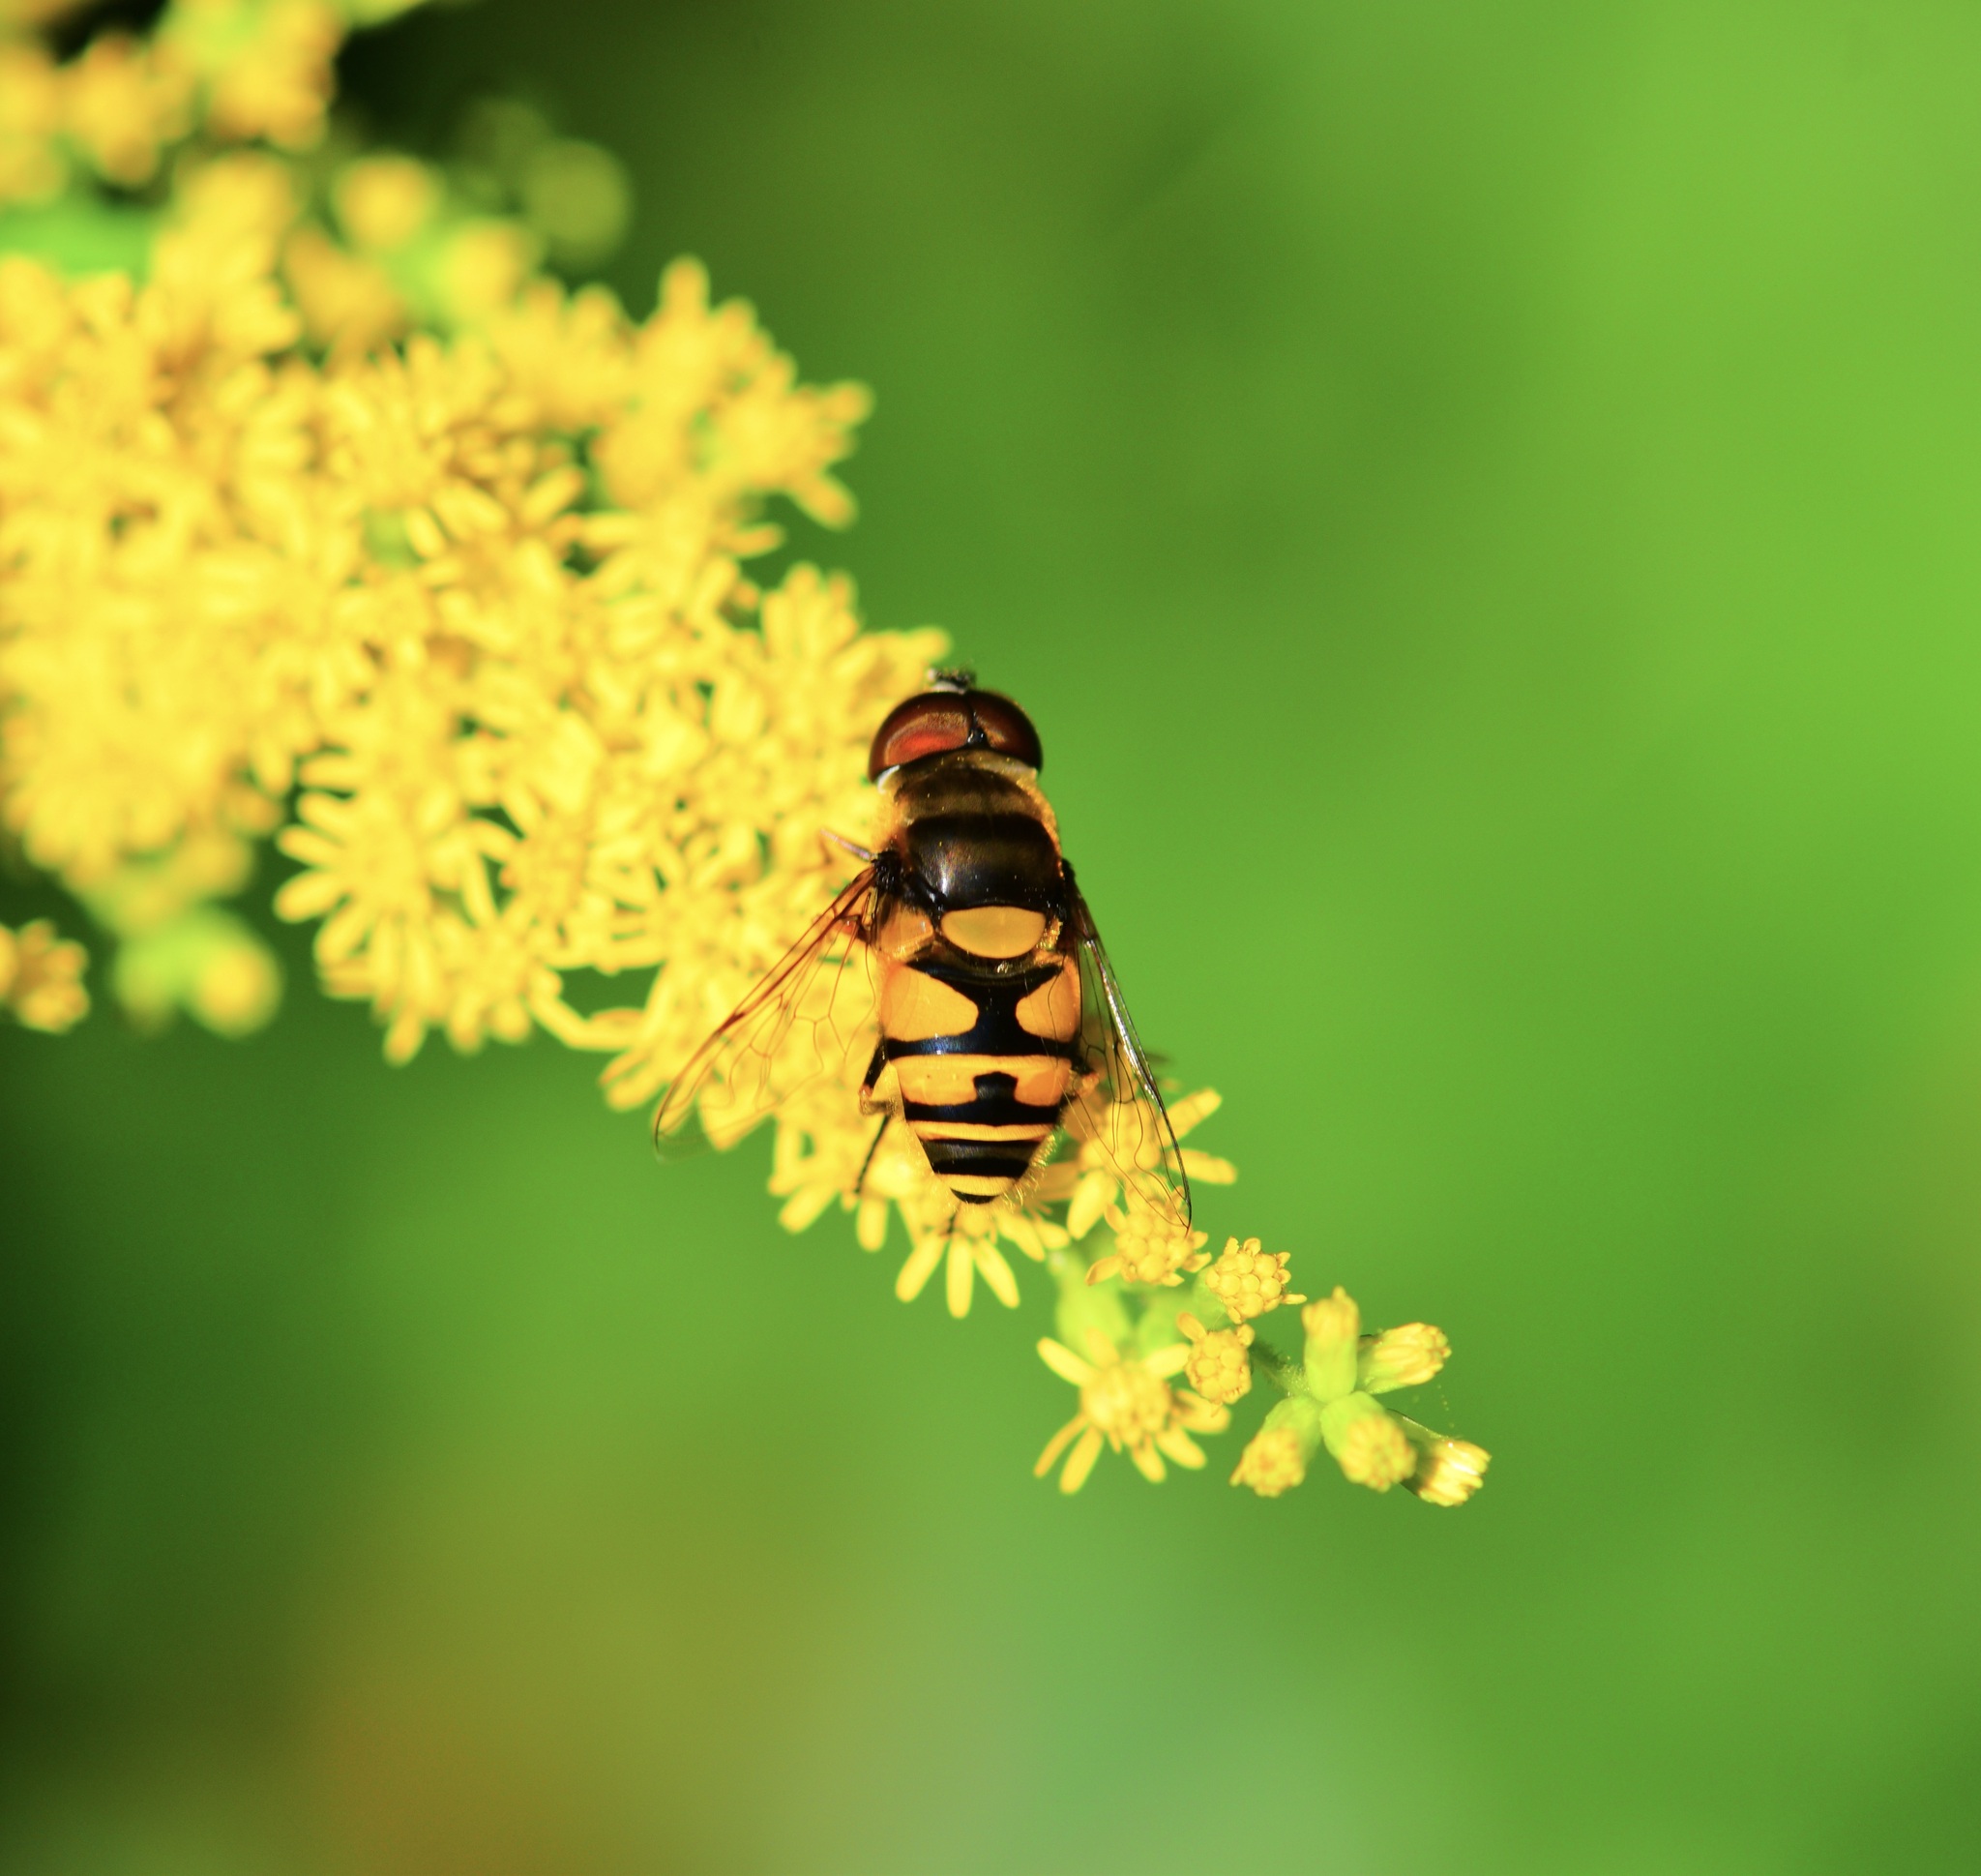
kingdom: Animalia
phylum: Arthropoda
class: Insecta
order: Diptera
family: Syrphidae
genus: Eristalis
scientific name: Eristalis transversa
